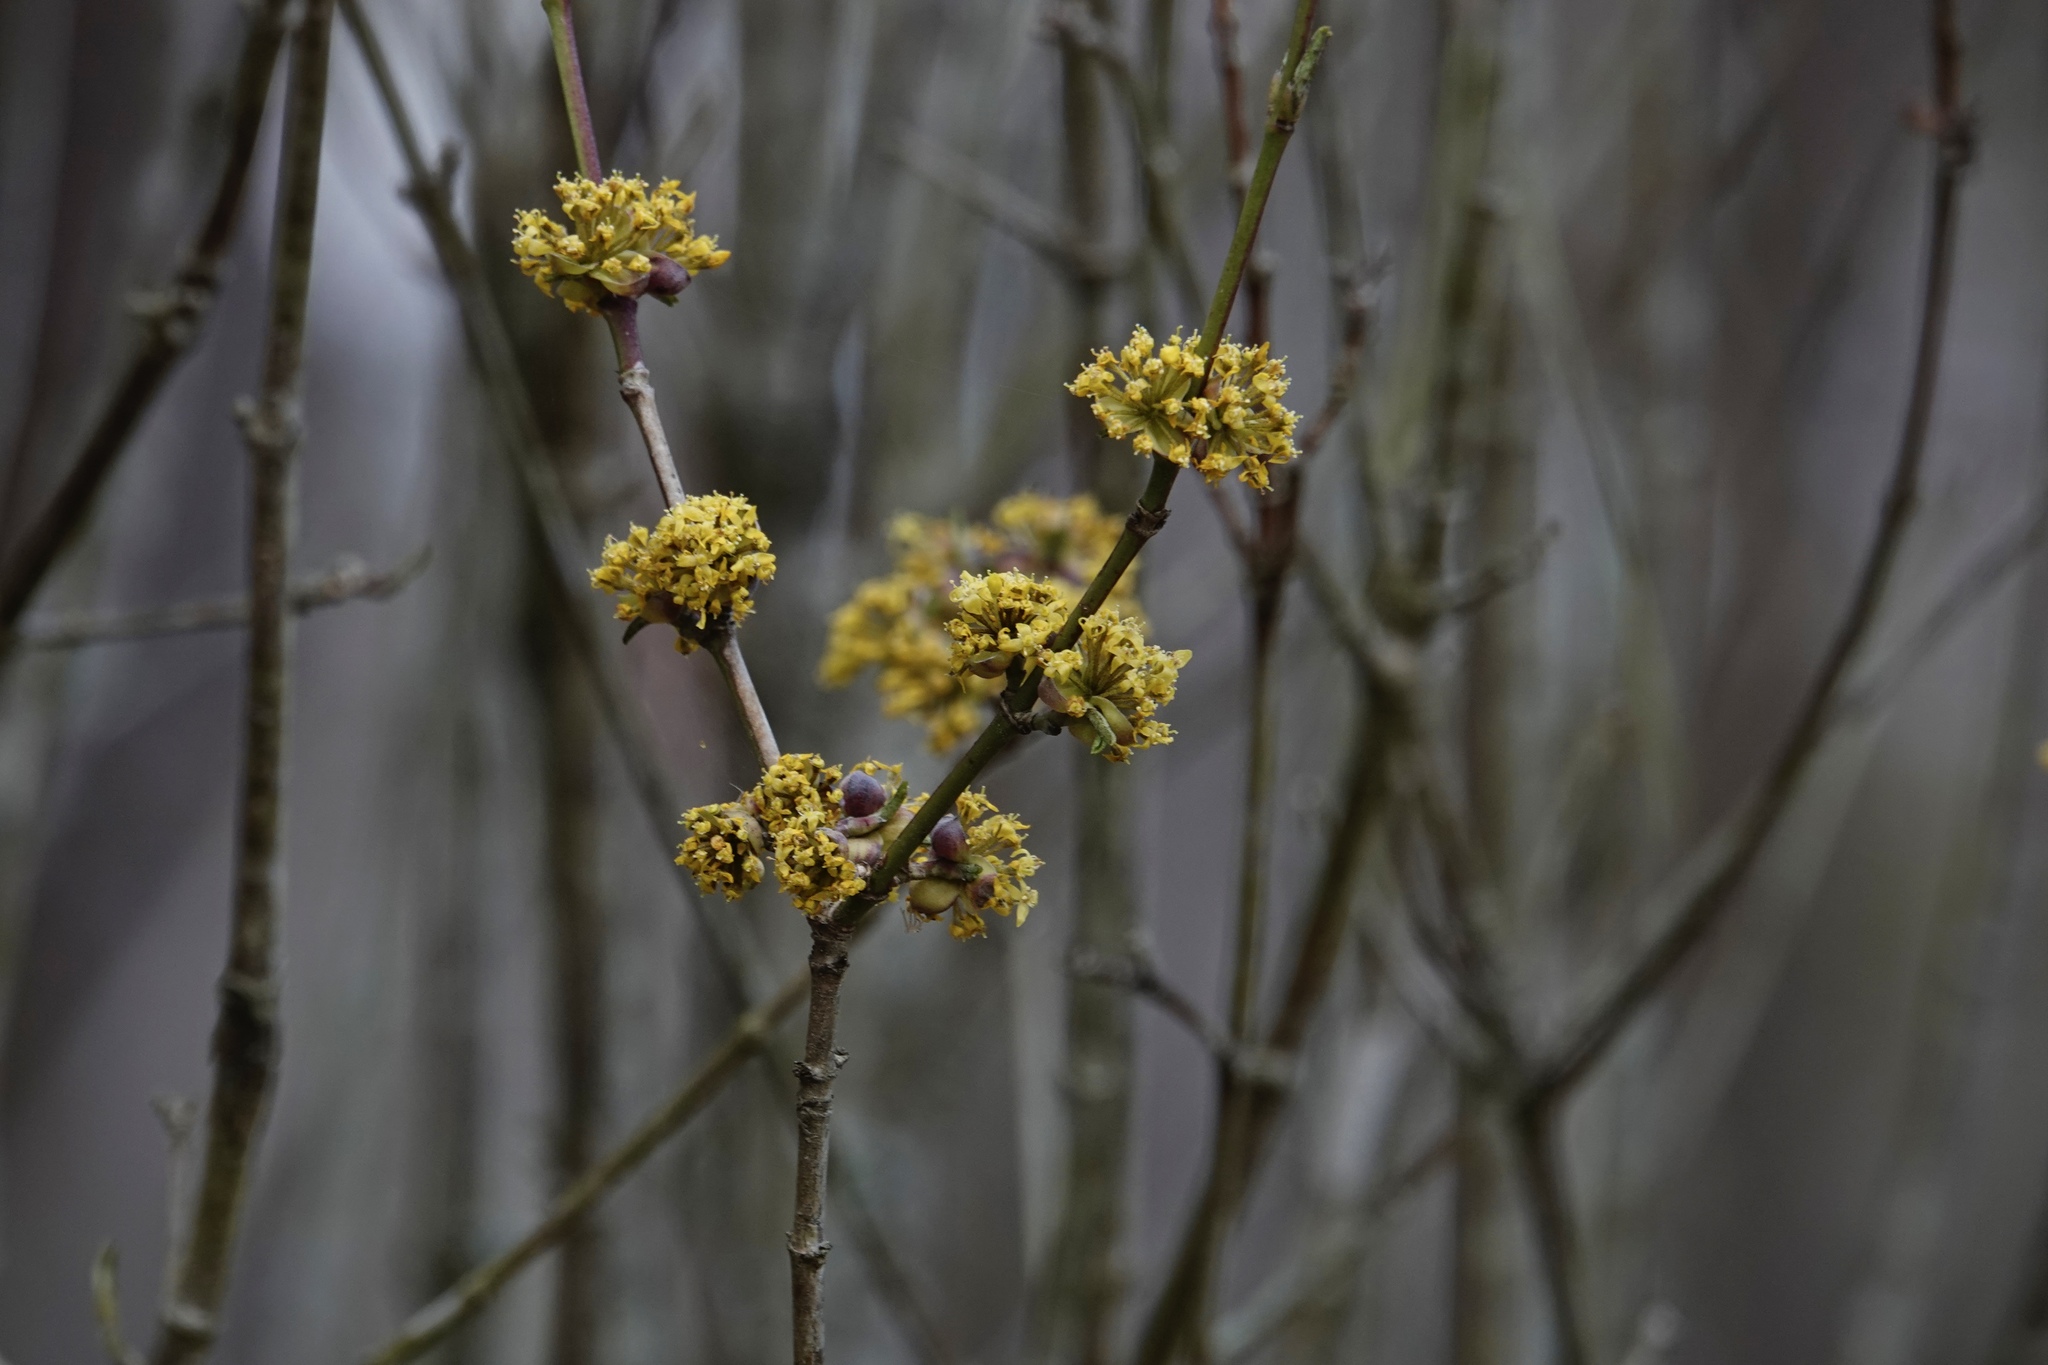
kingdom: Plantae
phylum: Tracheophyta
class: Magnoliopsida
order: Cornales
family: Cornaceae
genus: Cornus
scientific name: Cornus mas
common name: Cornelian-cherry
